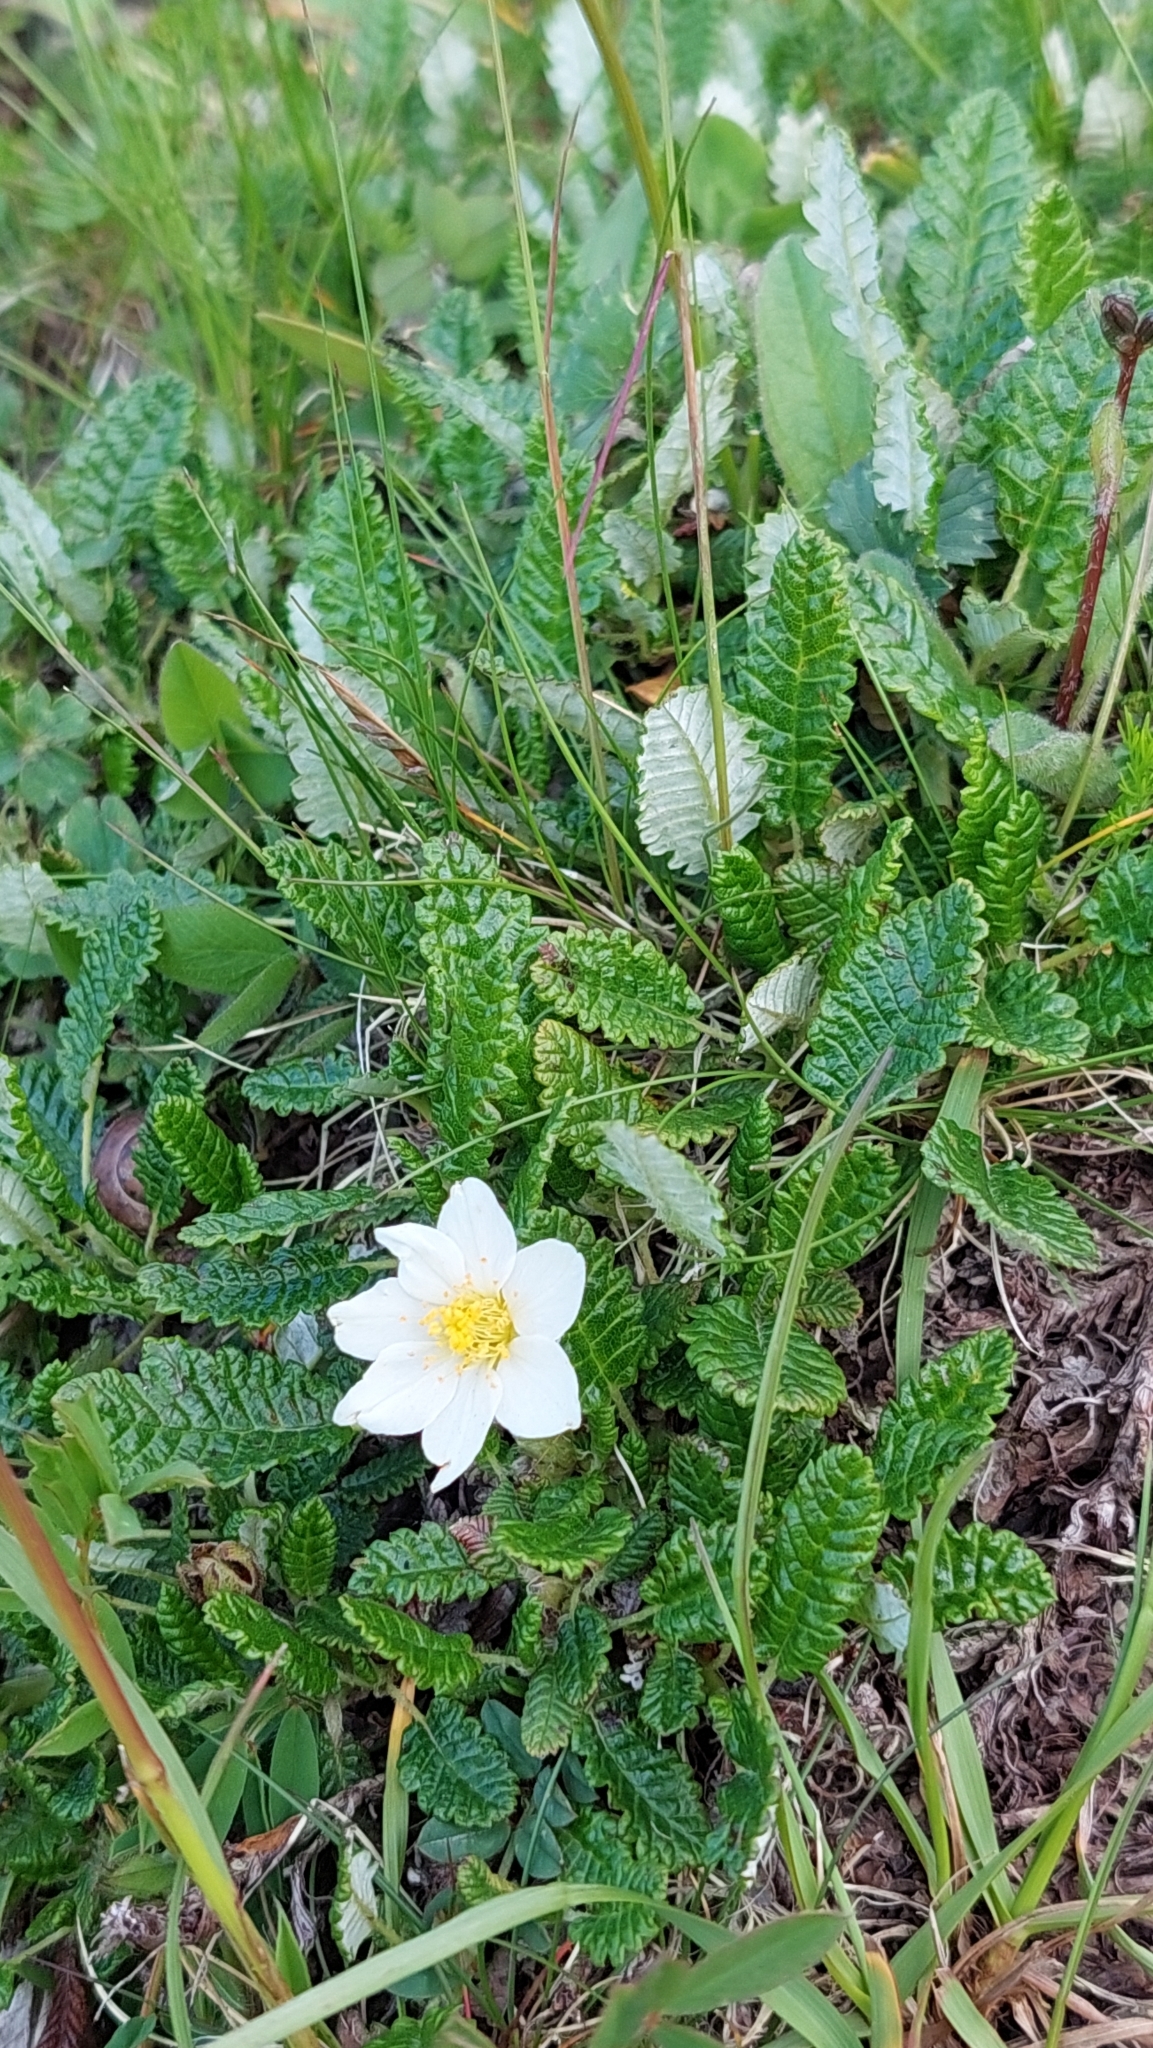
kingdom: Plantae
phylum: Tracheophyta
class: Magnoliopsida
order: Rosales
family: Rosaceae
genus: Dryas
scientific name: Dryas octopetala
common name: Eight-petal mountain-avens
